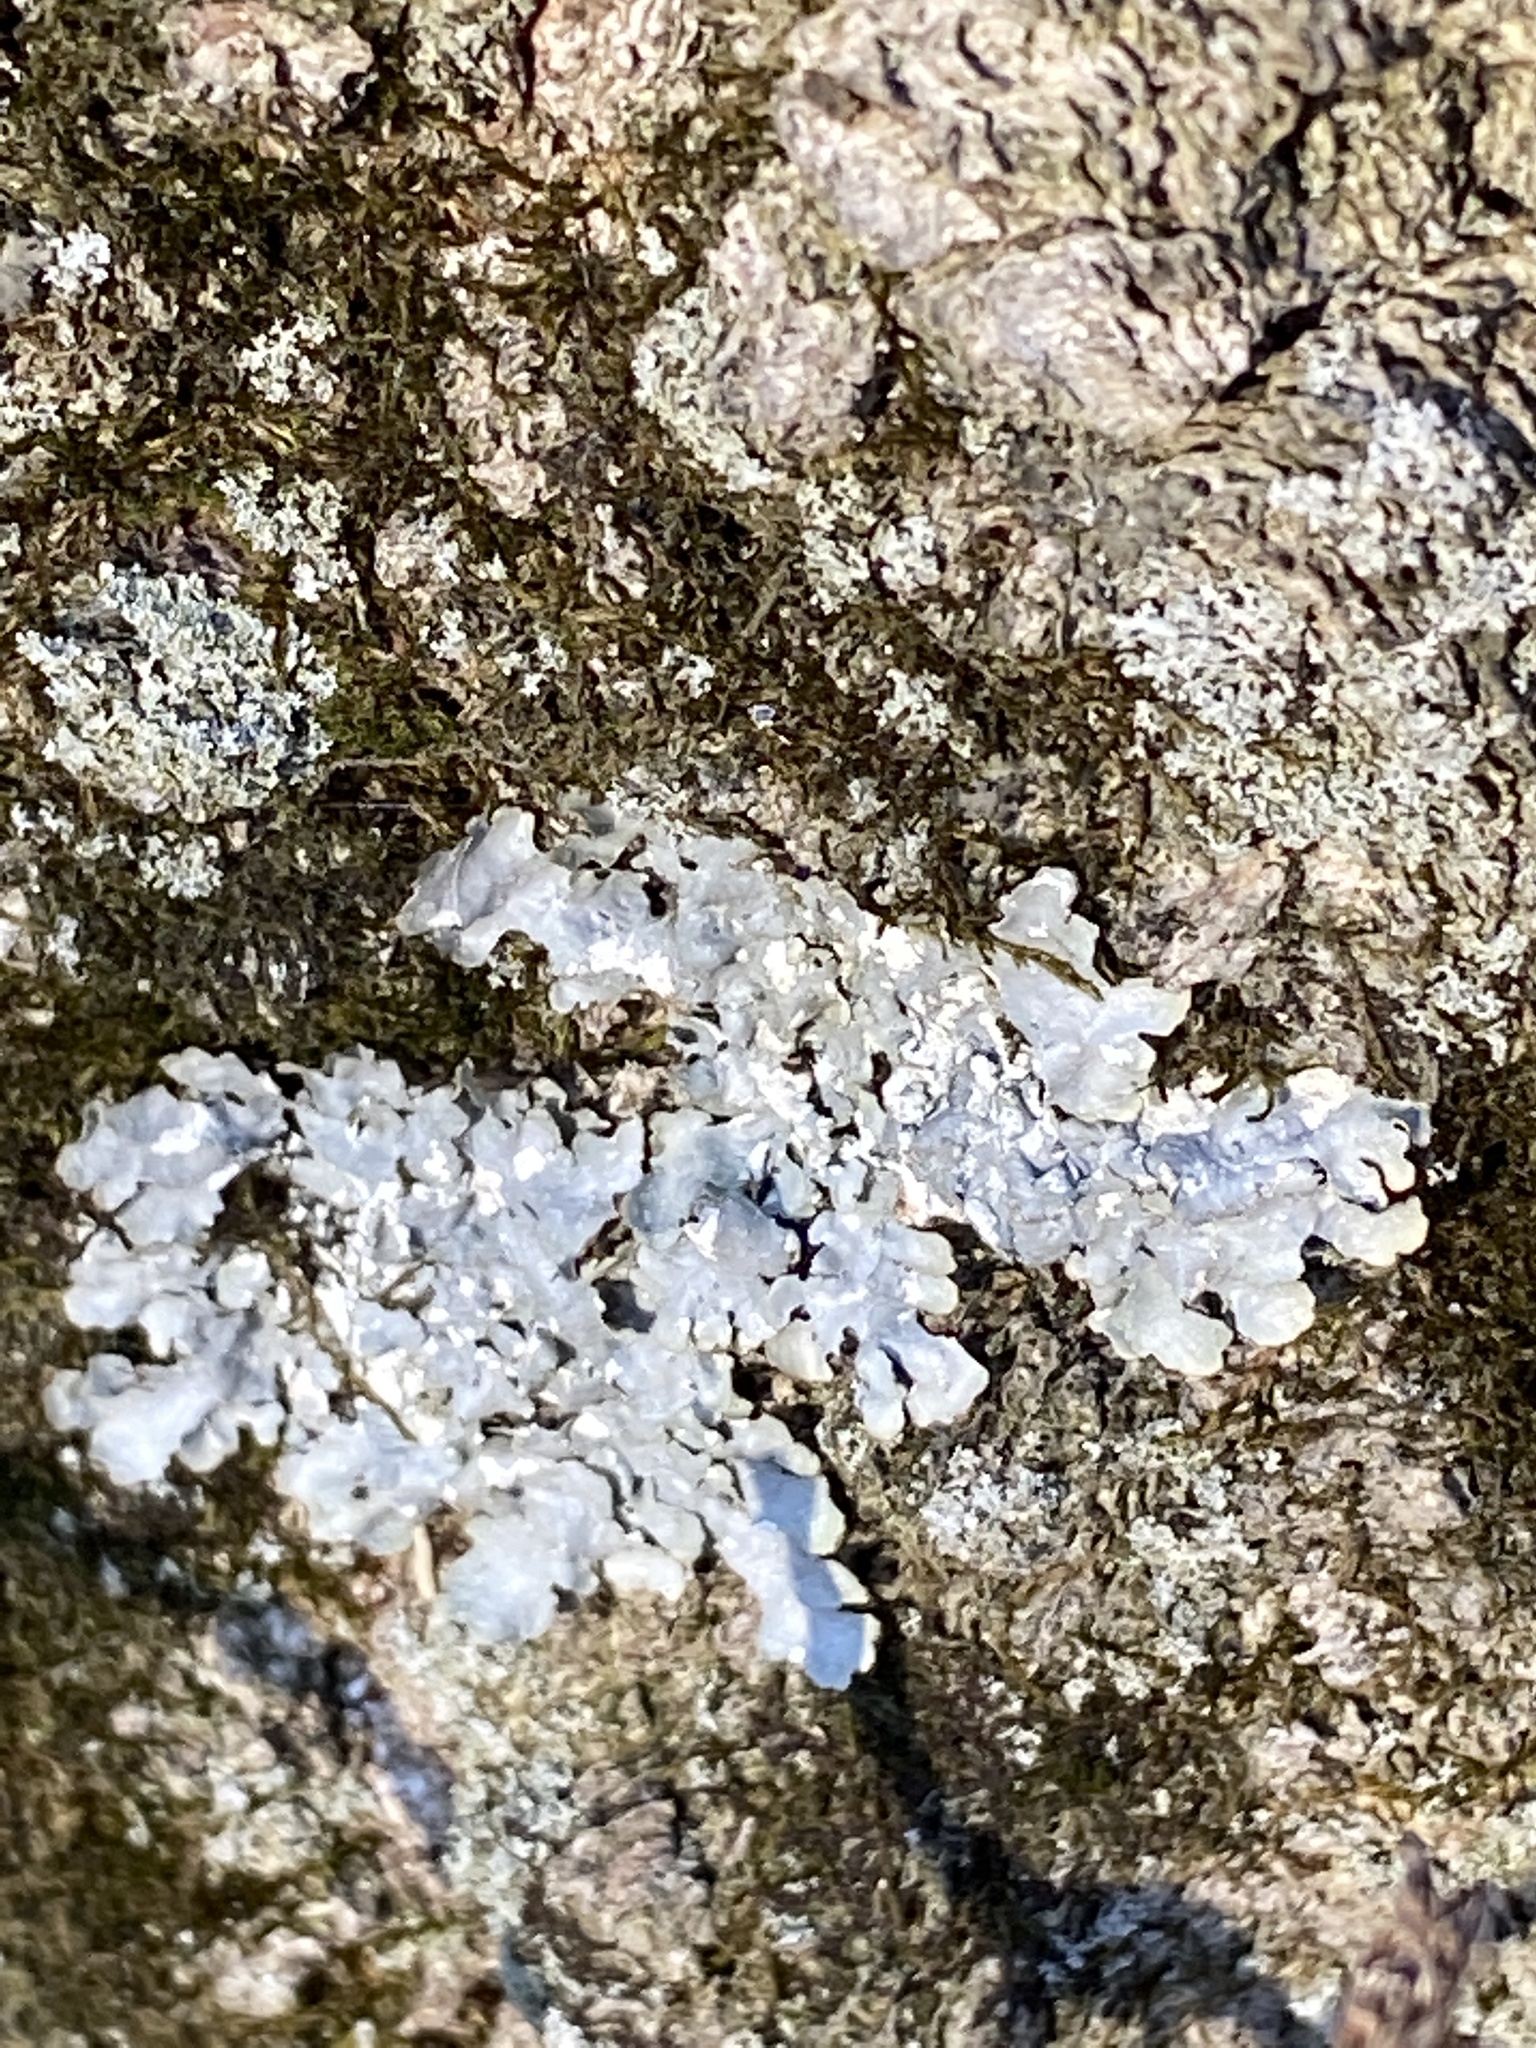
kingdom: Fungi
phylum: Ascomycota
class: Lecanoromycetes
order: Lecanorales
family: Parmeliaceae
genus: Punctelia
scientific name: Punctelia rudecta
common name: Rough speckled shield lichen
